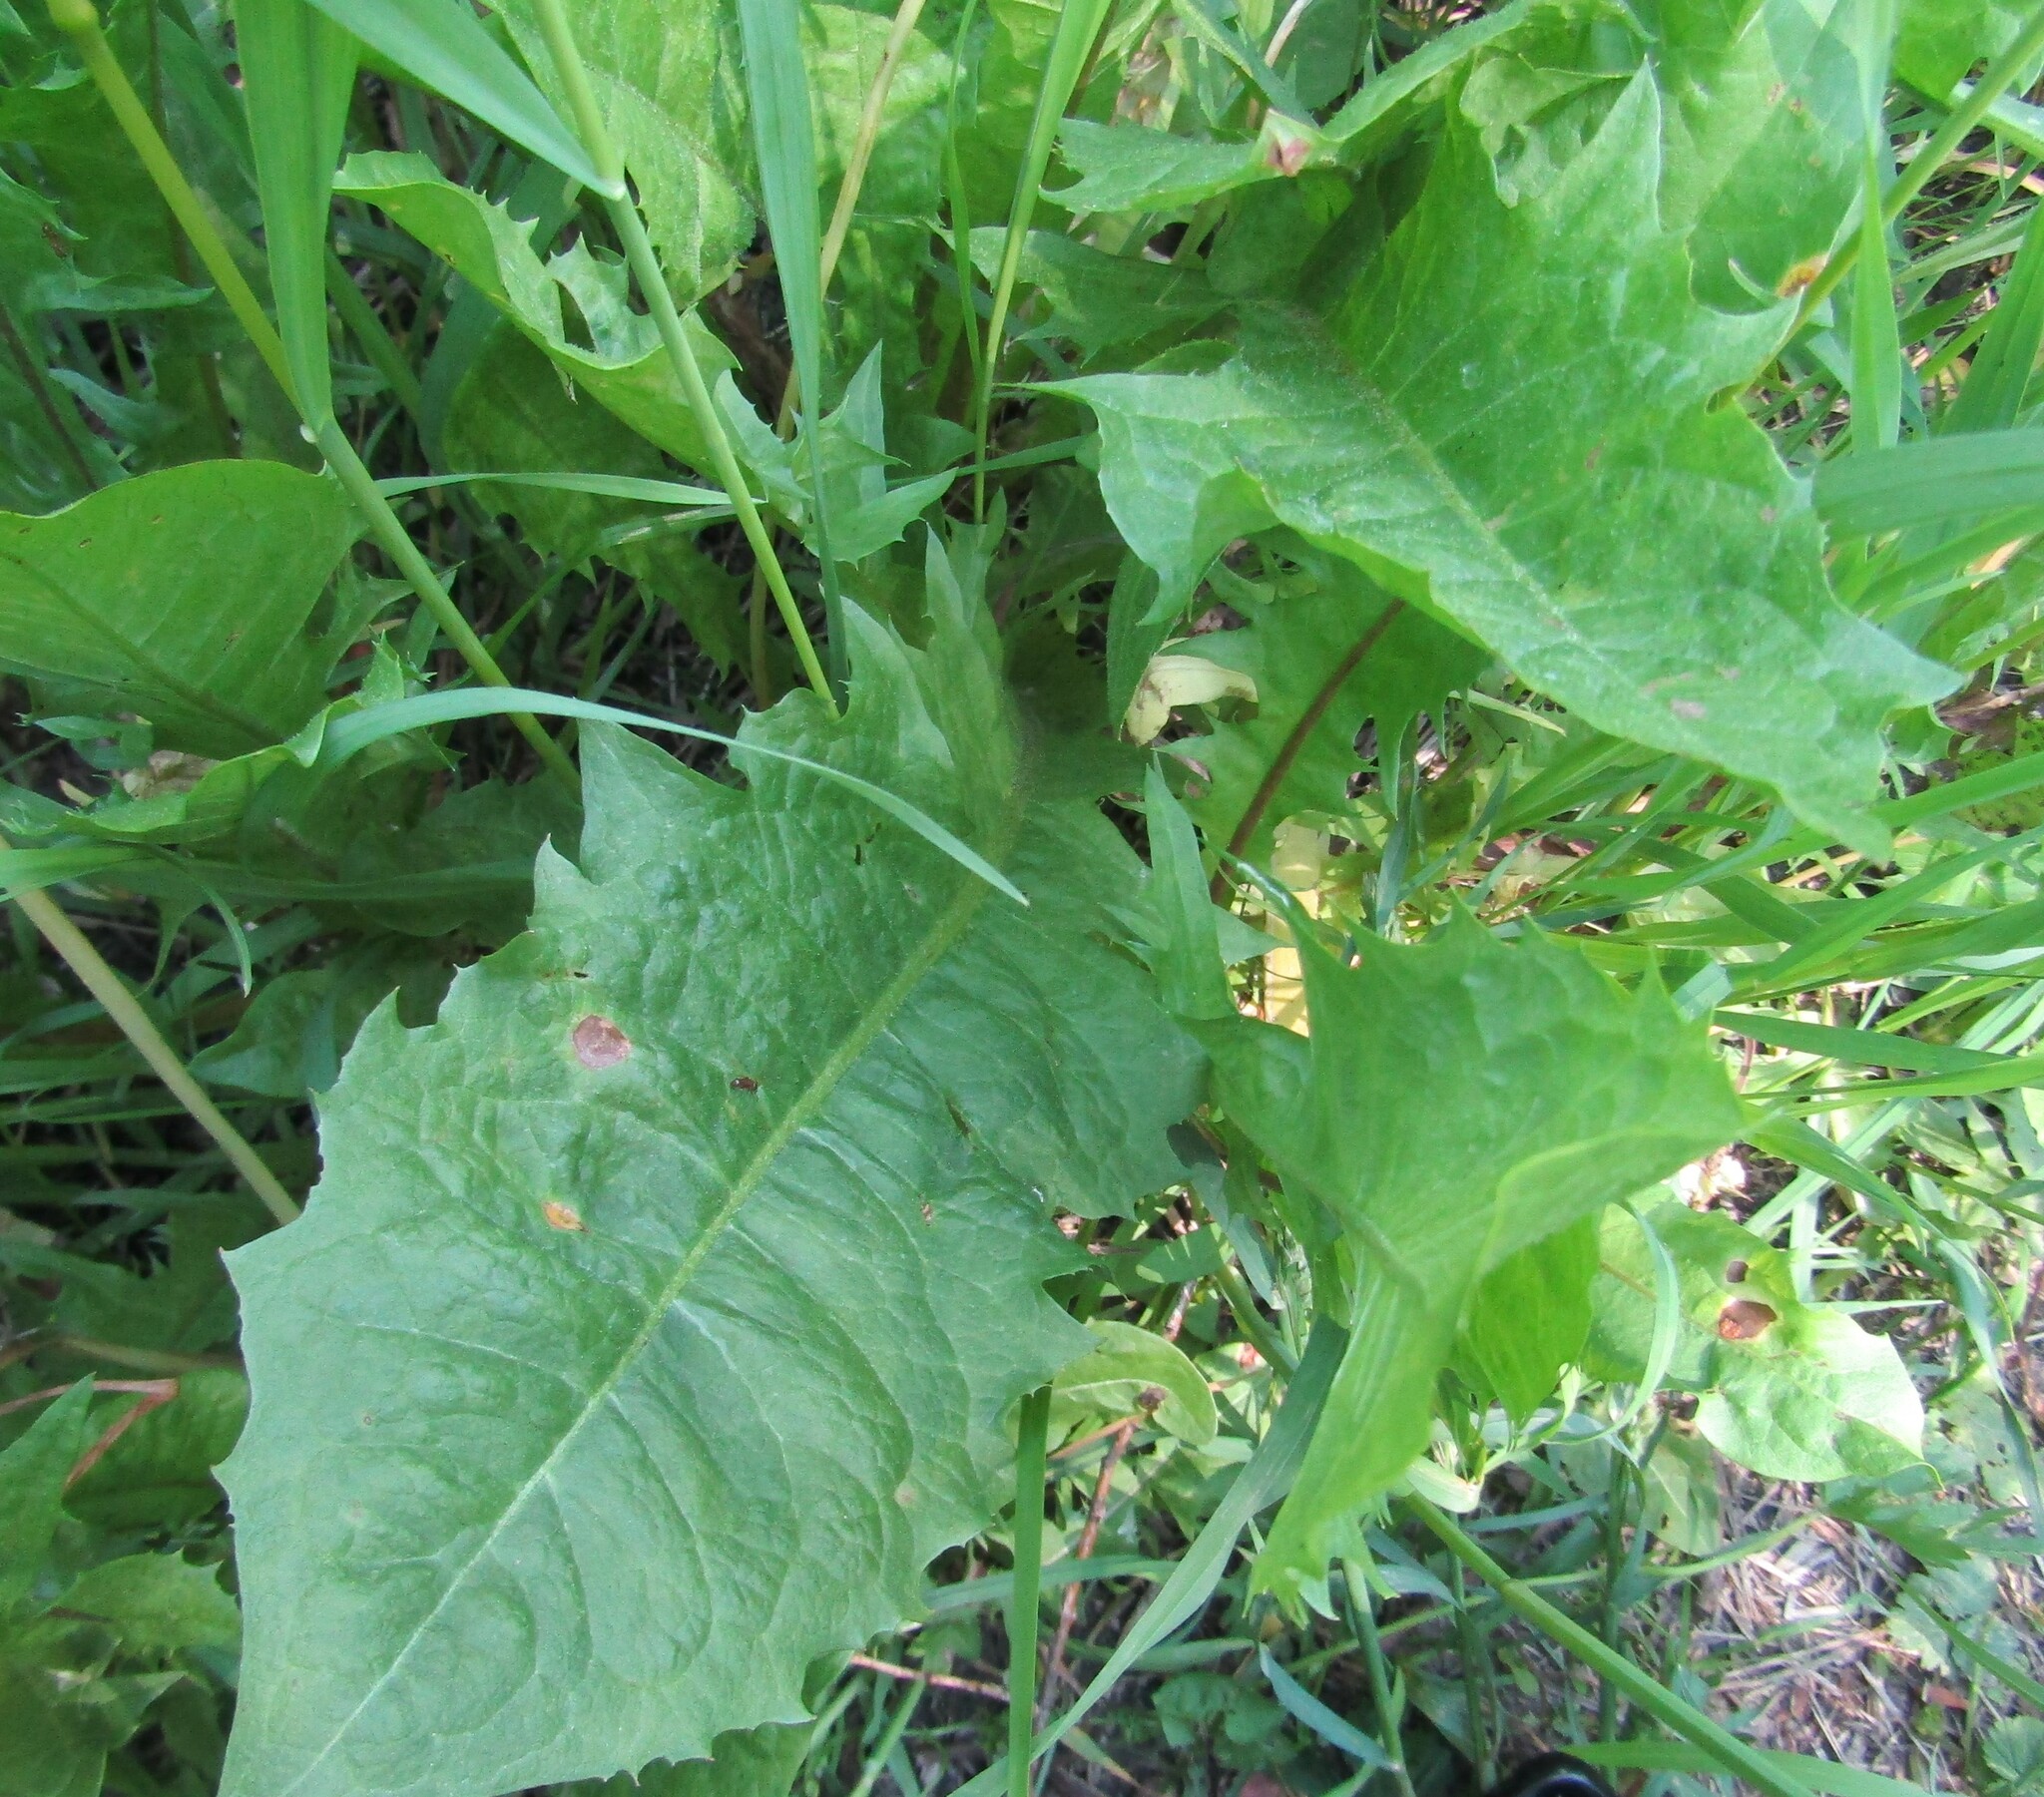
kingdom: Fungi
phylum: Basidiomycota
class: Pucciniomycetes
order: Pucciniales
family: Pucciniaceae
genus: Puccinia
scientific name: Puccinia dioicae
